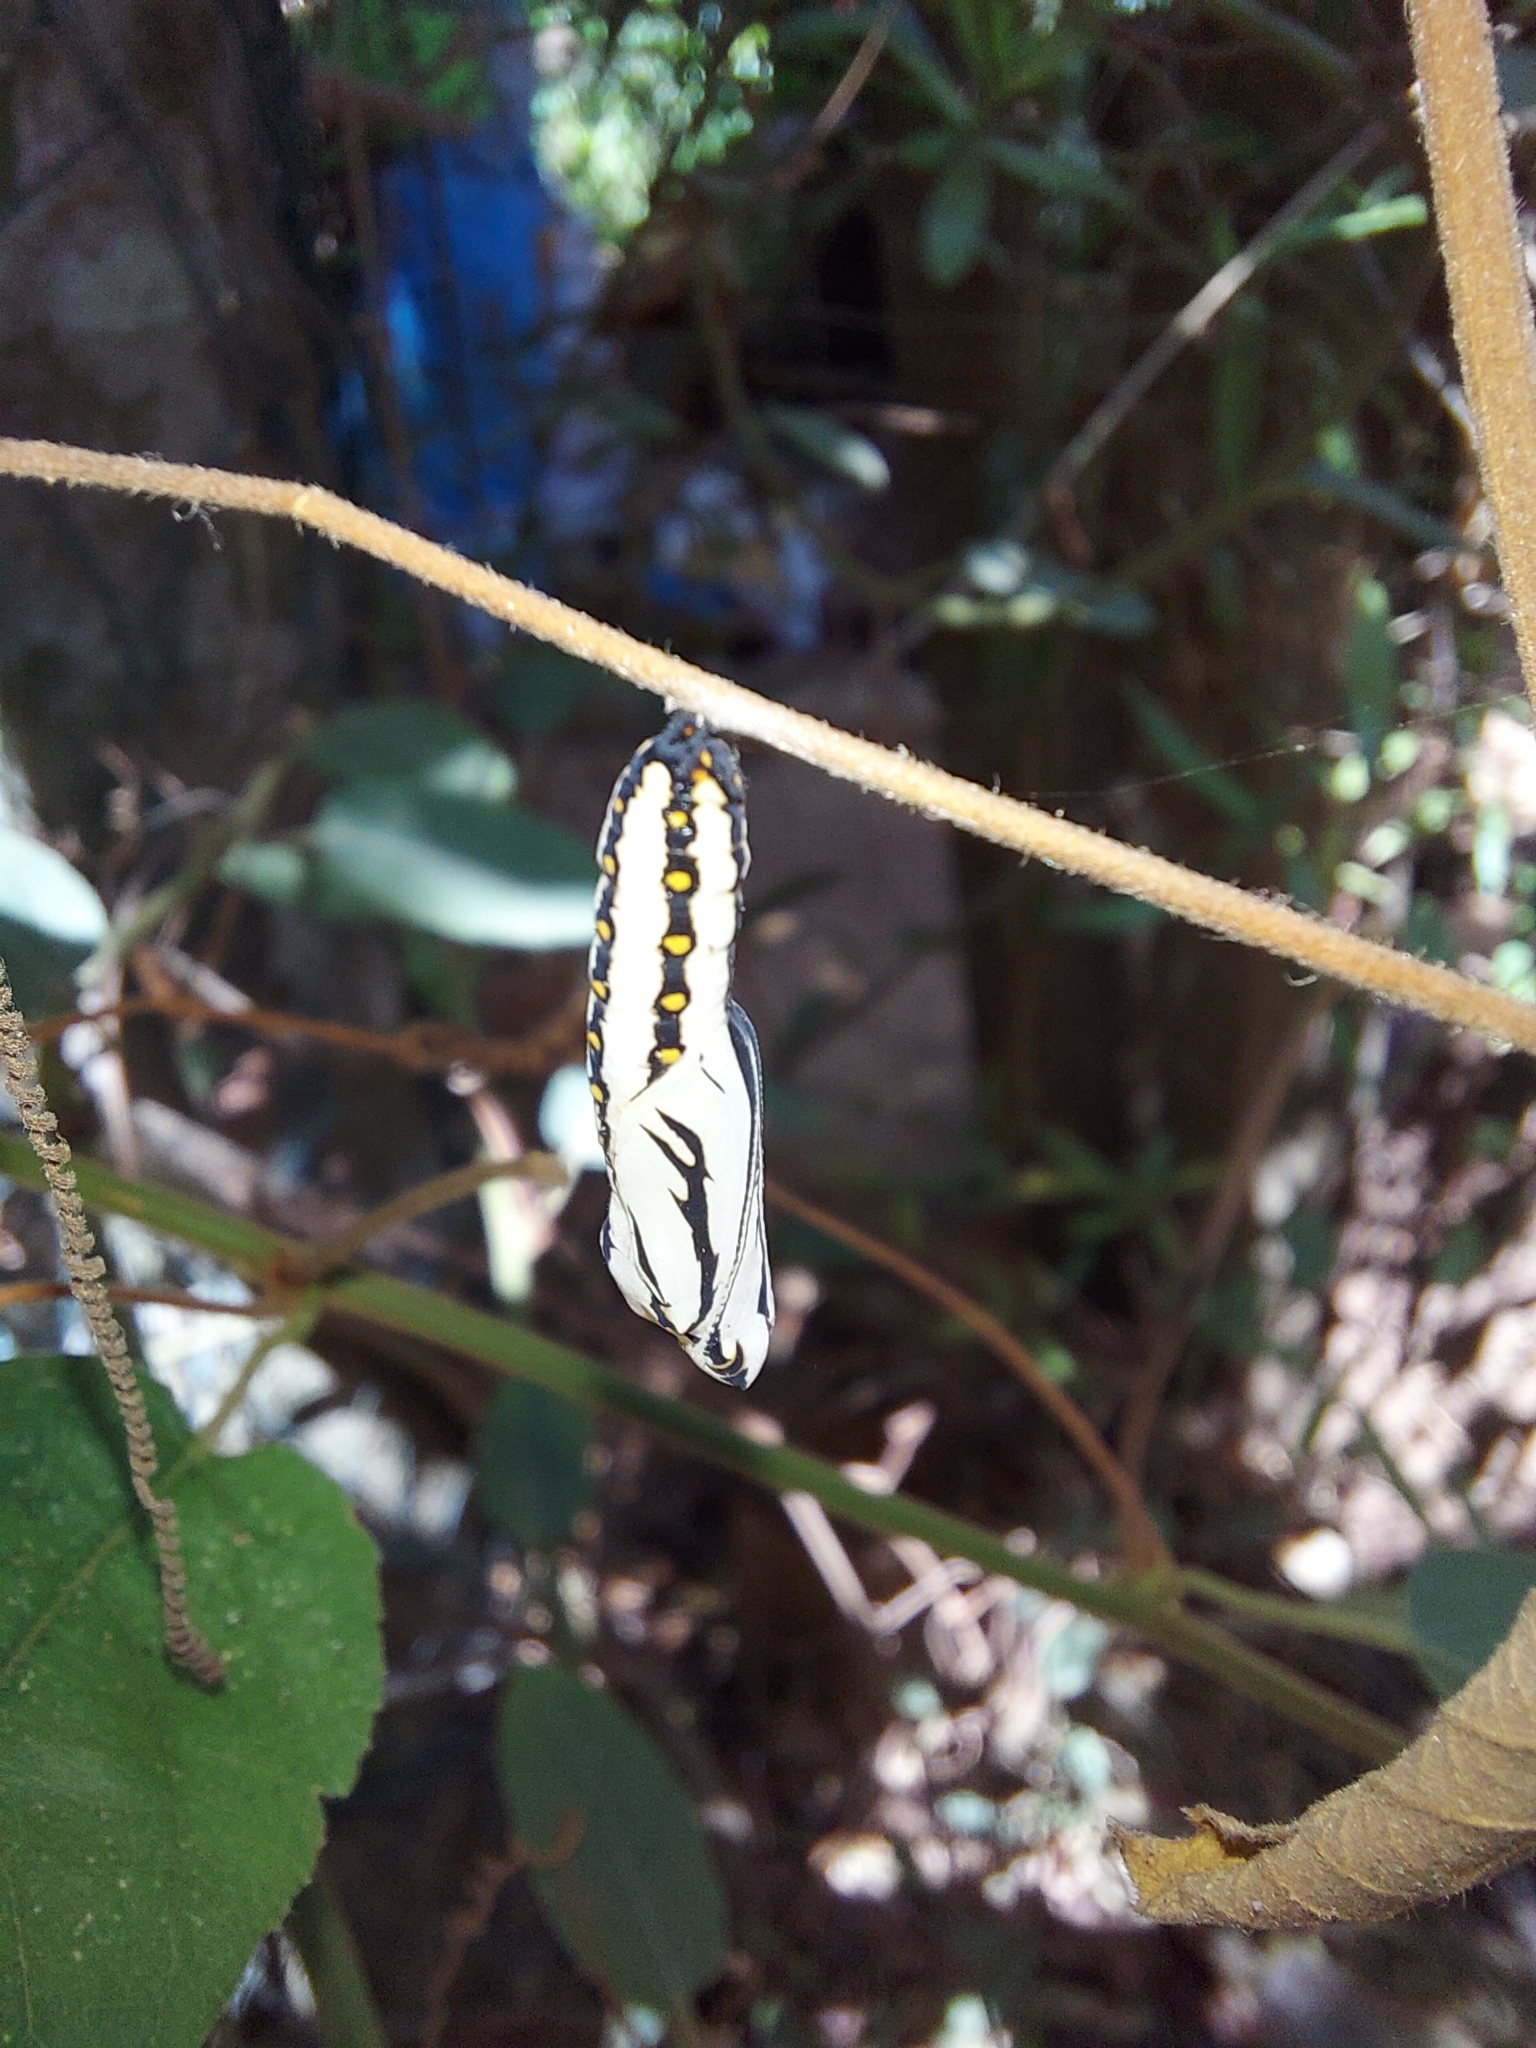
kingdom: Animalia
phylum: Arthropoda
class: Insecta
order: Lepidoptera
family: Nymphalidae
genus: Acraea
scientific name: Acraea terpsicore
